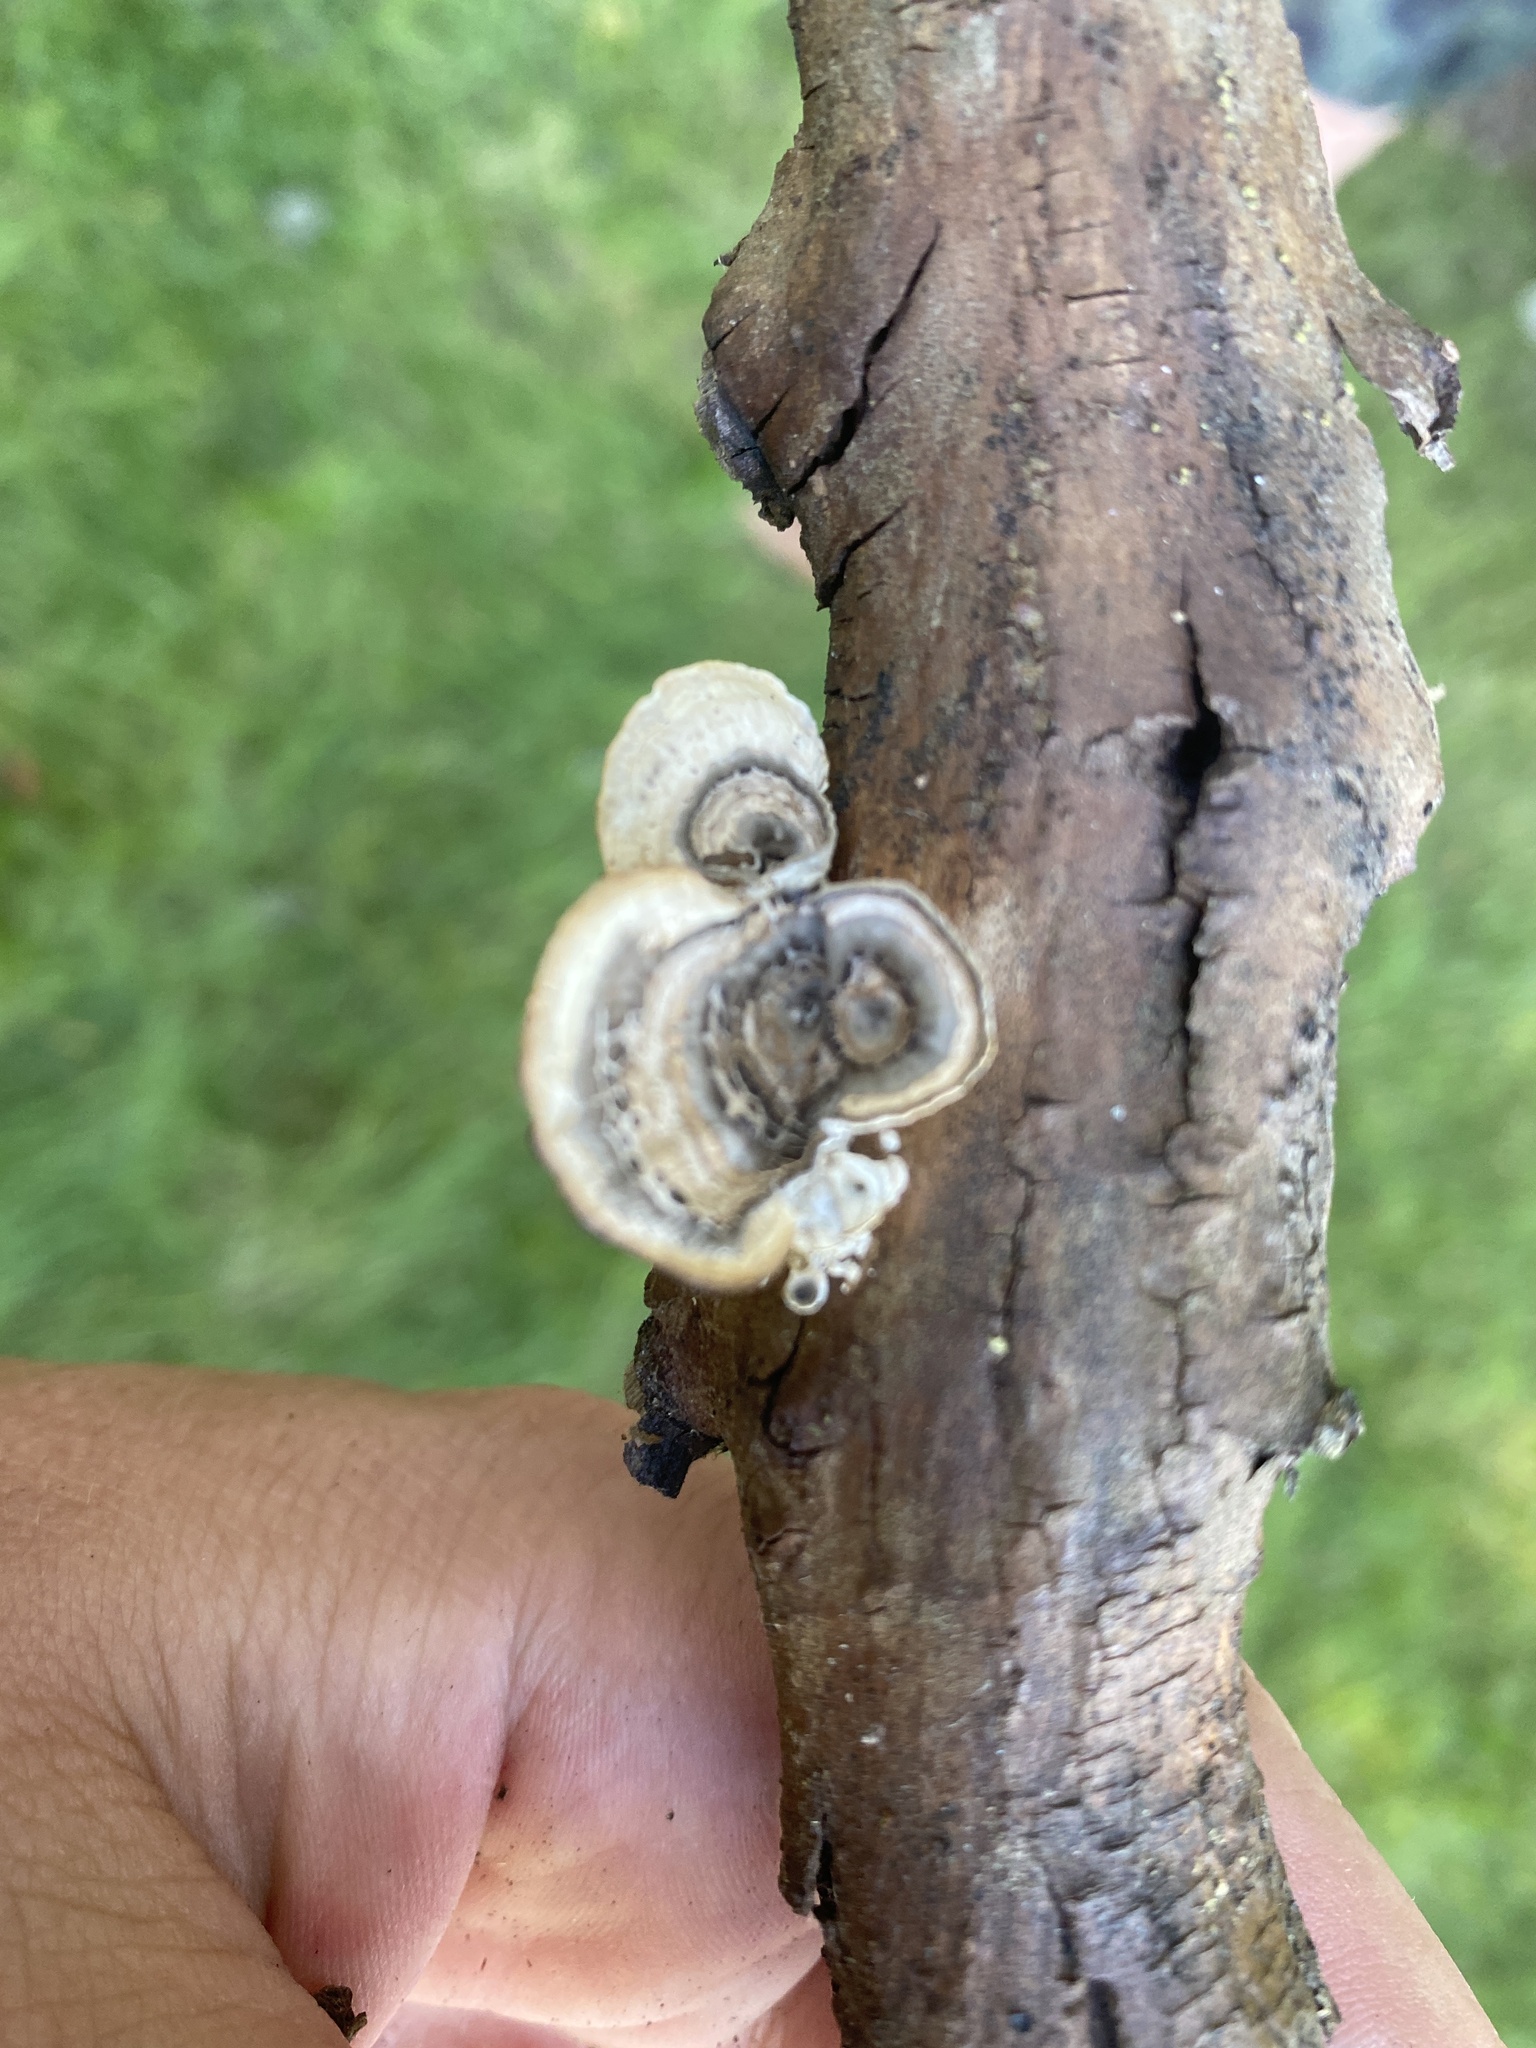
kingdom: Fungi
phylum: Basidiomycota
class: Agaricomycetes
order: Polyporales
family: Polyporaceae
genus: Poronidulus
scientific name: Poronidulus conchifer
